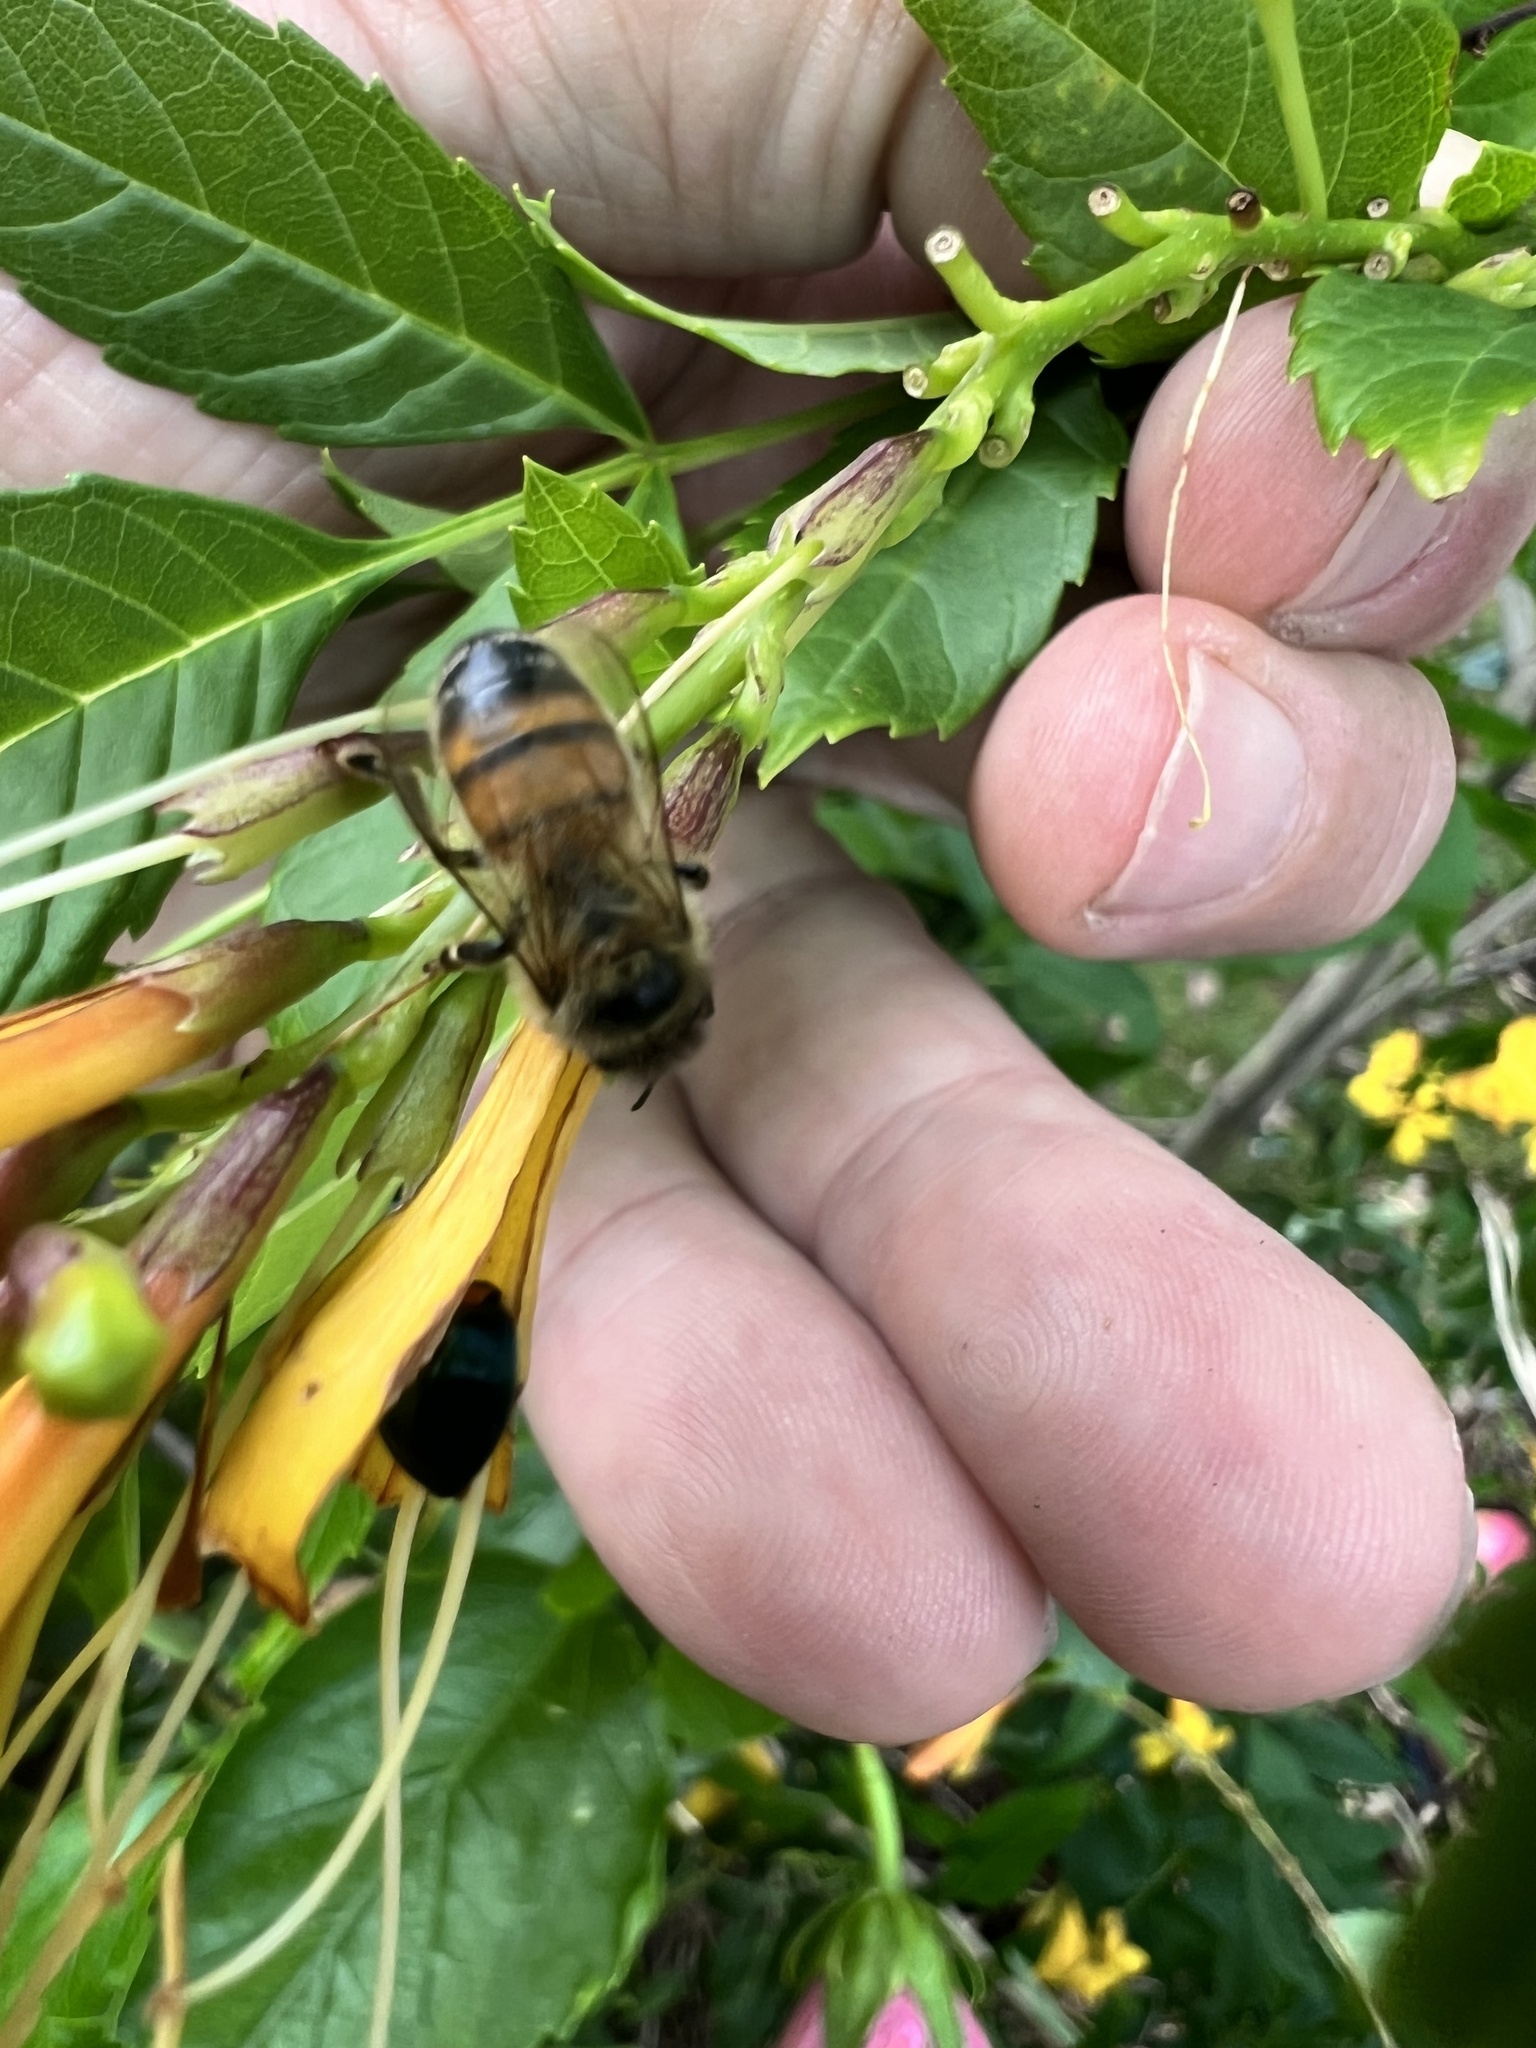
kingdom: Animalia
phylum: Arthropoda
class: Insecta
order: Hymenoptera
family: Apidae
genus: Apis
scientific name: Apis mellifera
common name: Honey bee
